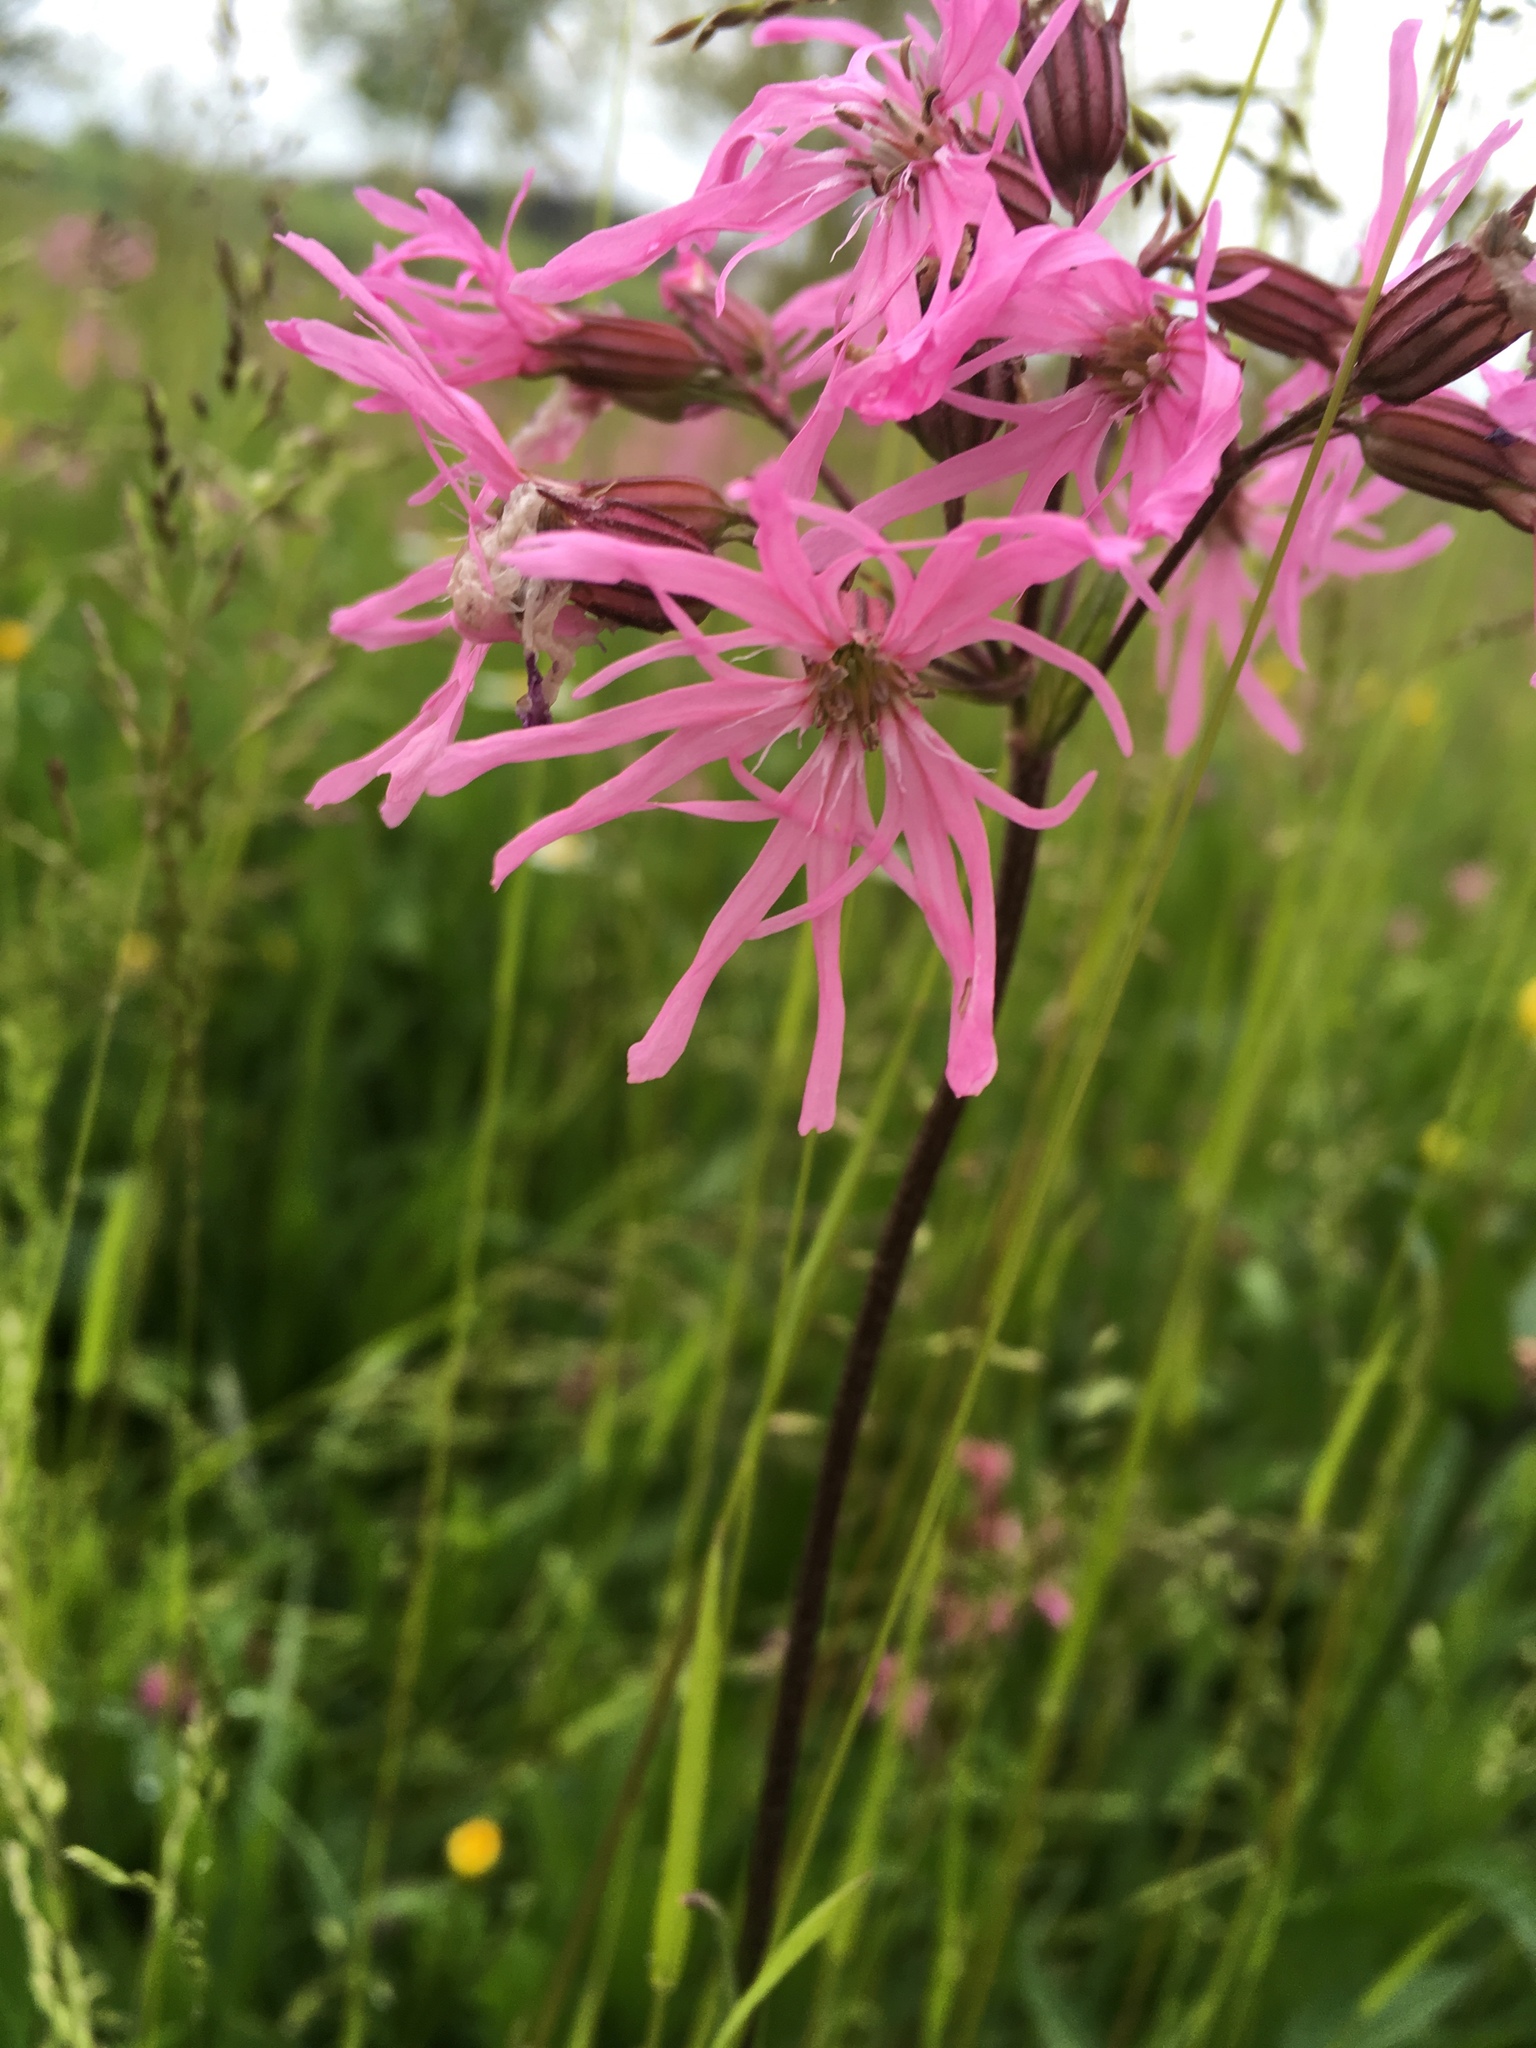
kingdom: Plantae
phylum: Tracheophyta
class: Magnoliopsida
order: Caryophyllales
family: Caryophyllaceae
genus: Silene
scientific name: Silene flos-cuculi
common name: Ragged-robin
